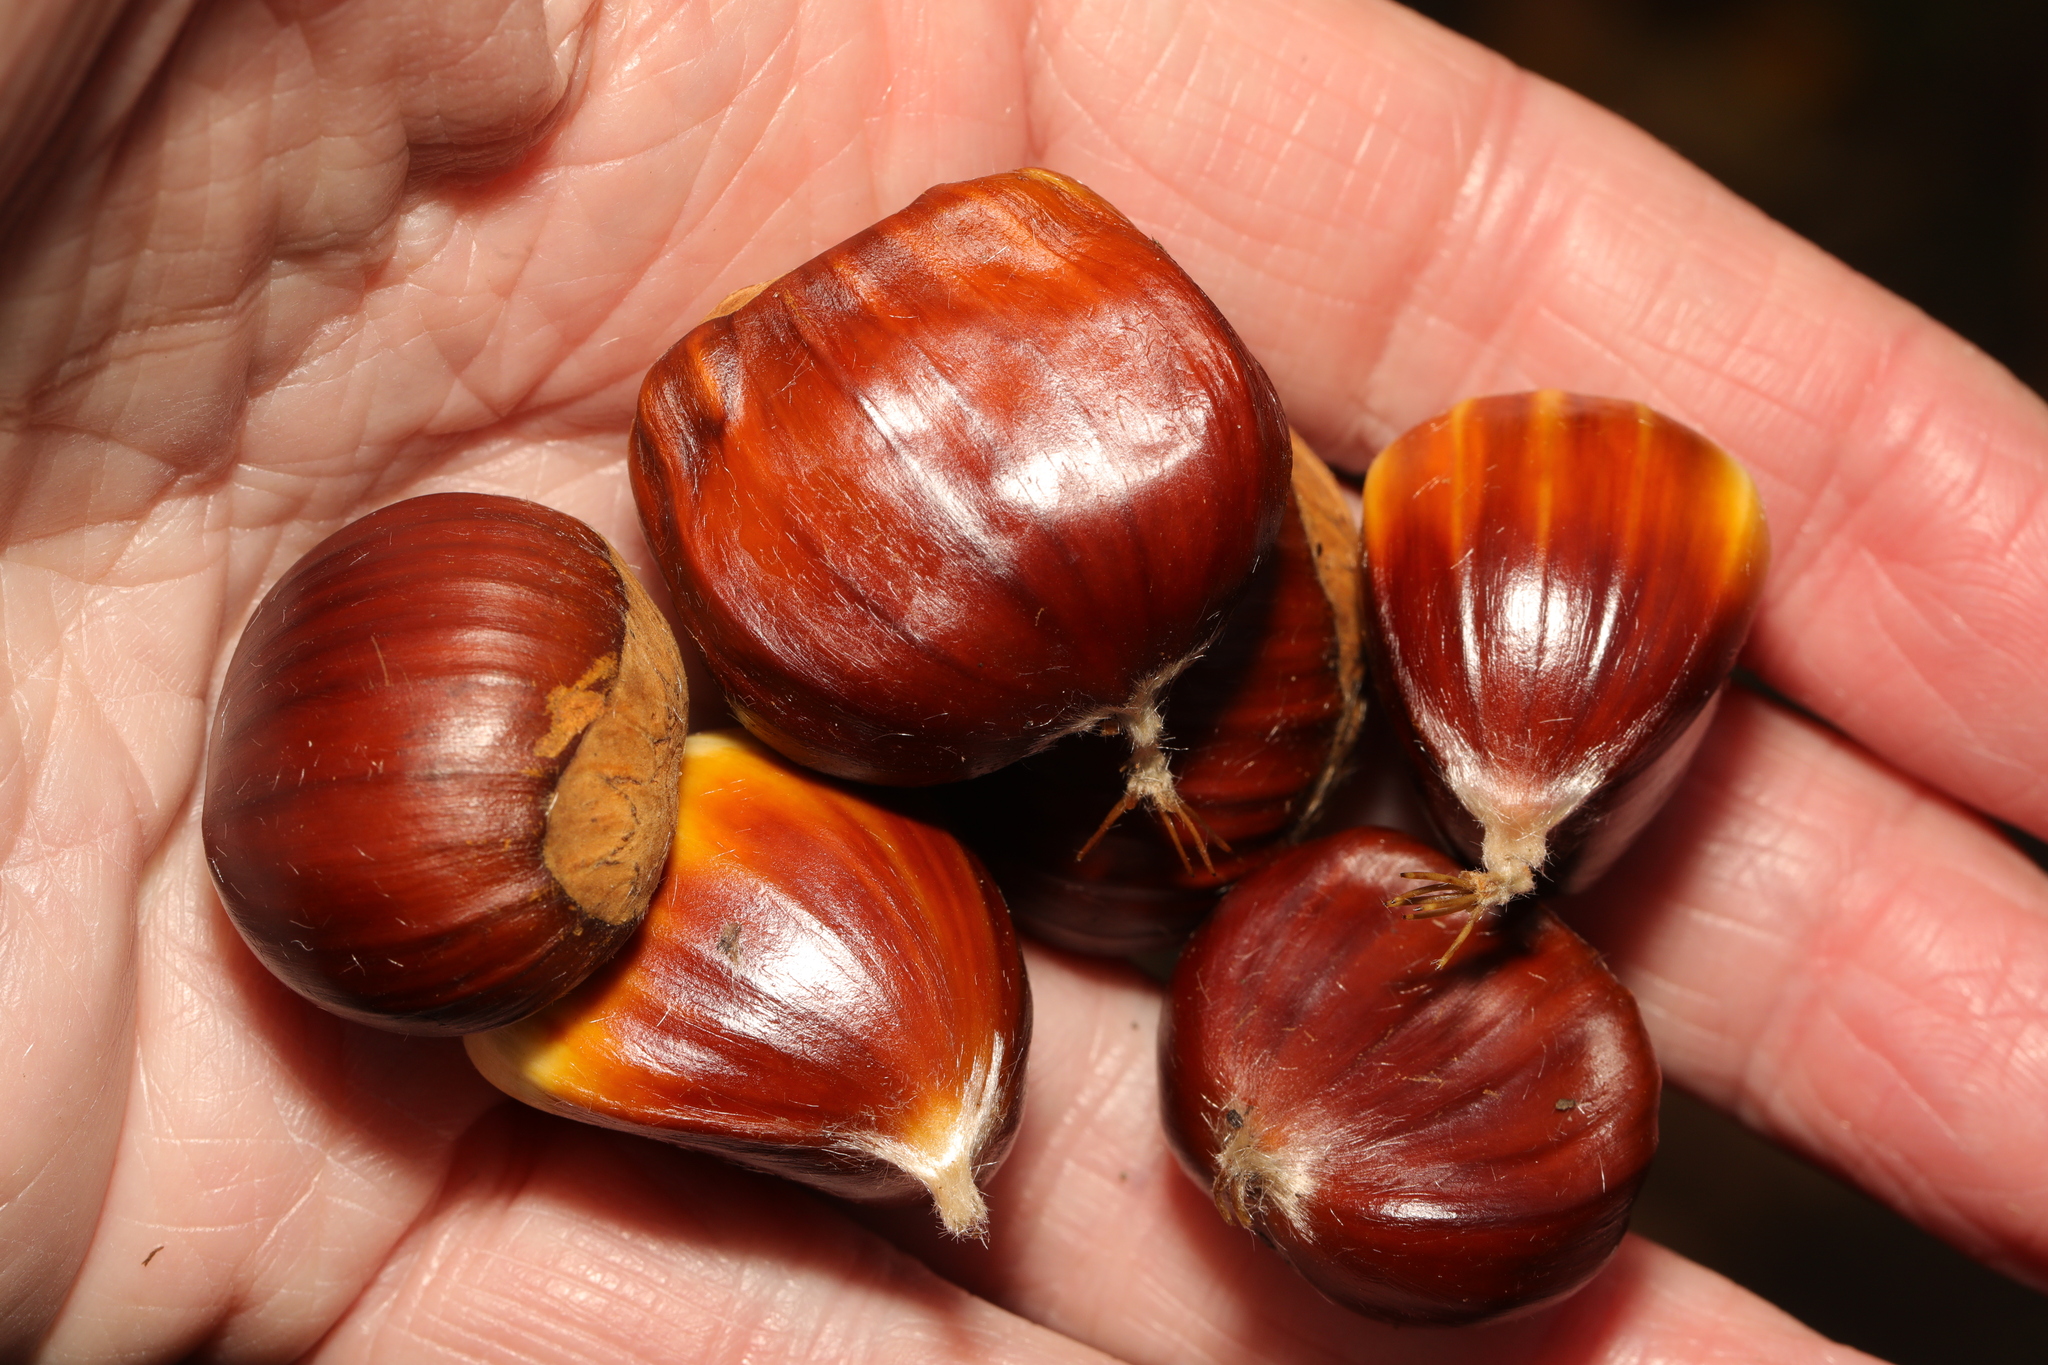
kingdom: Plantae
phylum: Tracheophyta
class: Magnoliopsida
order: Fagales
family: Fagaceae
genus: Castanea
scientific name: Castanea sativa
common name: Sweet chestnut
